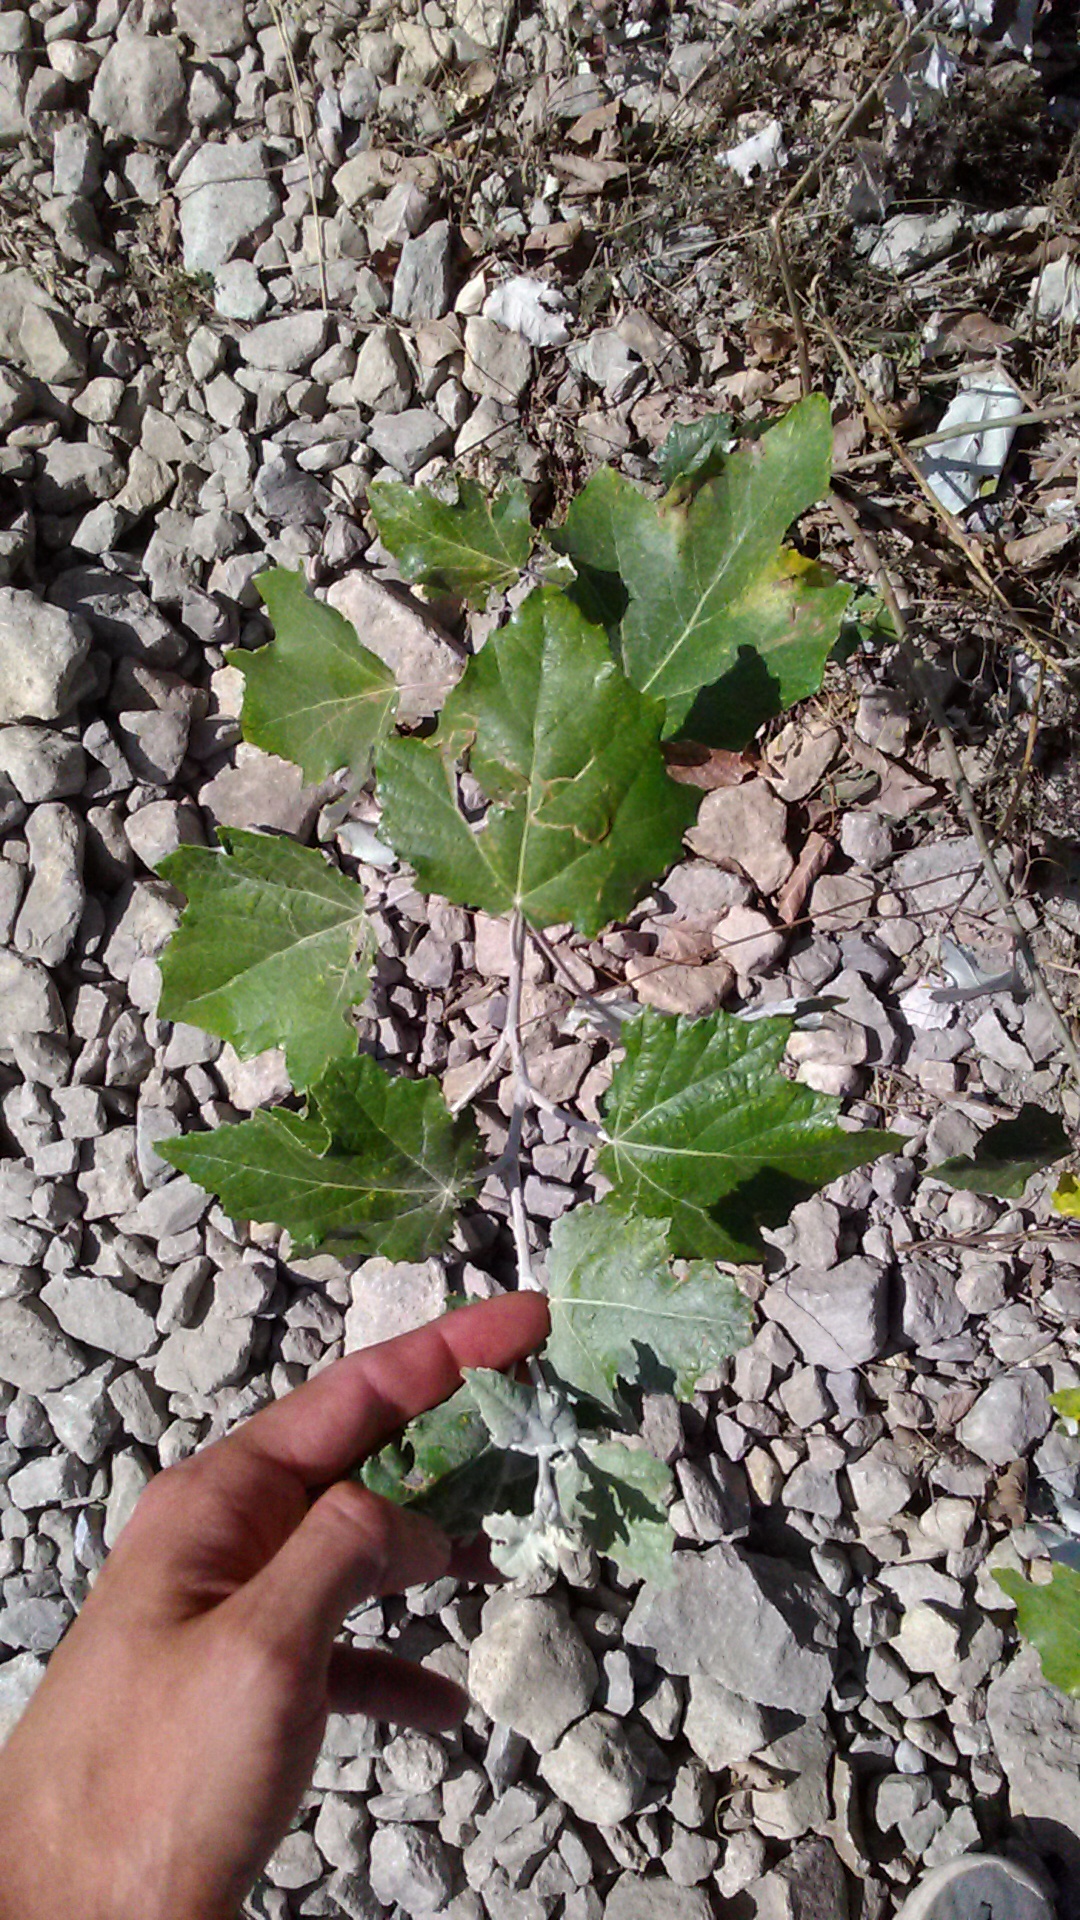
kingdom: Plantae
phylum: Tracheophyta
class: Magnoliopsida
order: Malpighiales
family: Salicaceae
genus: Populus
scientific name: Populus alba
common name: White poplar
